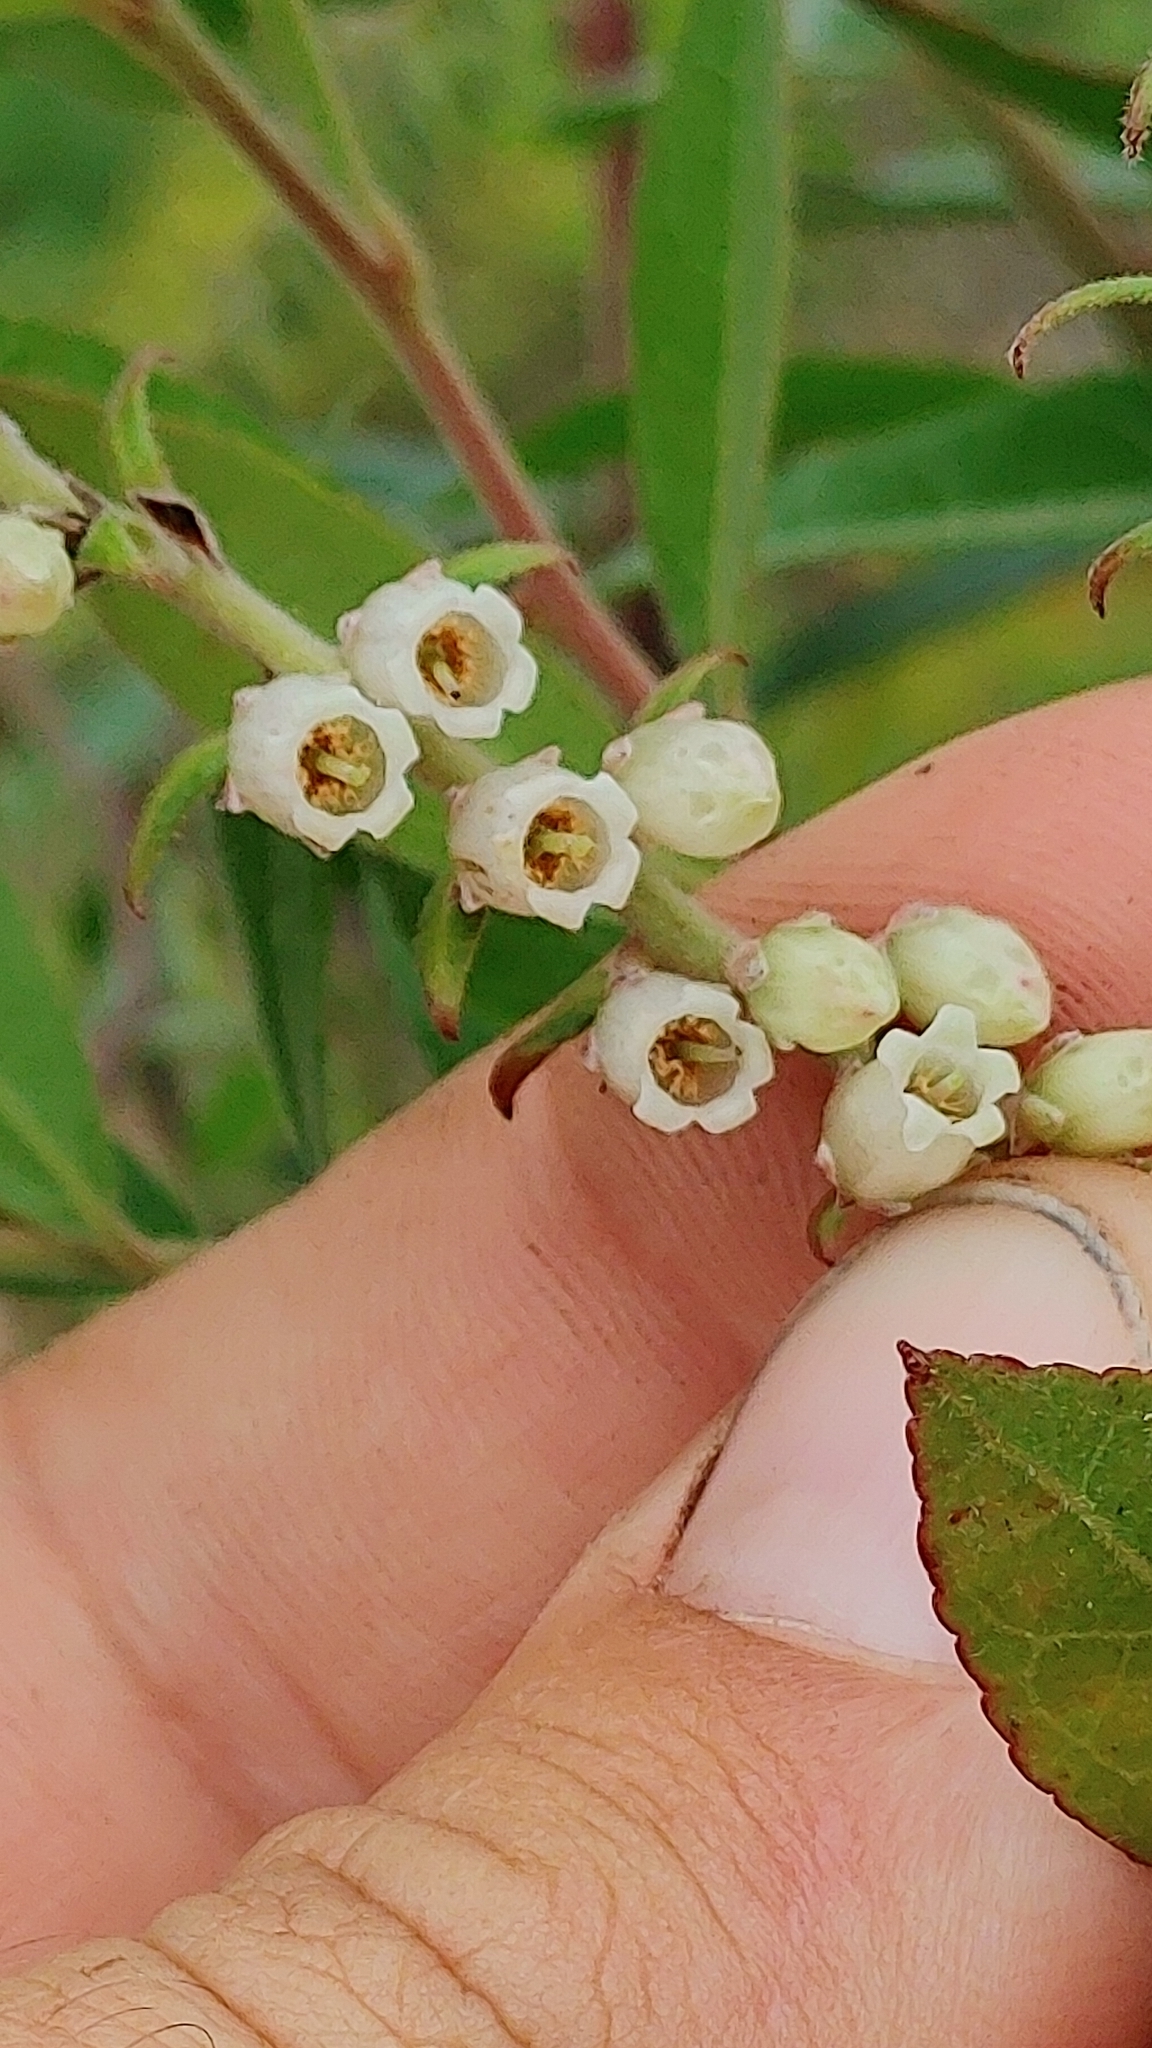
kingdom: Plantae
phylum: Tracheophyta
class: Magnoliopsida
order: Ericales
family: Ericaceae
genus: Eubotrys
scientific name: Eubotrys racemosa
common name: Fetterbush
